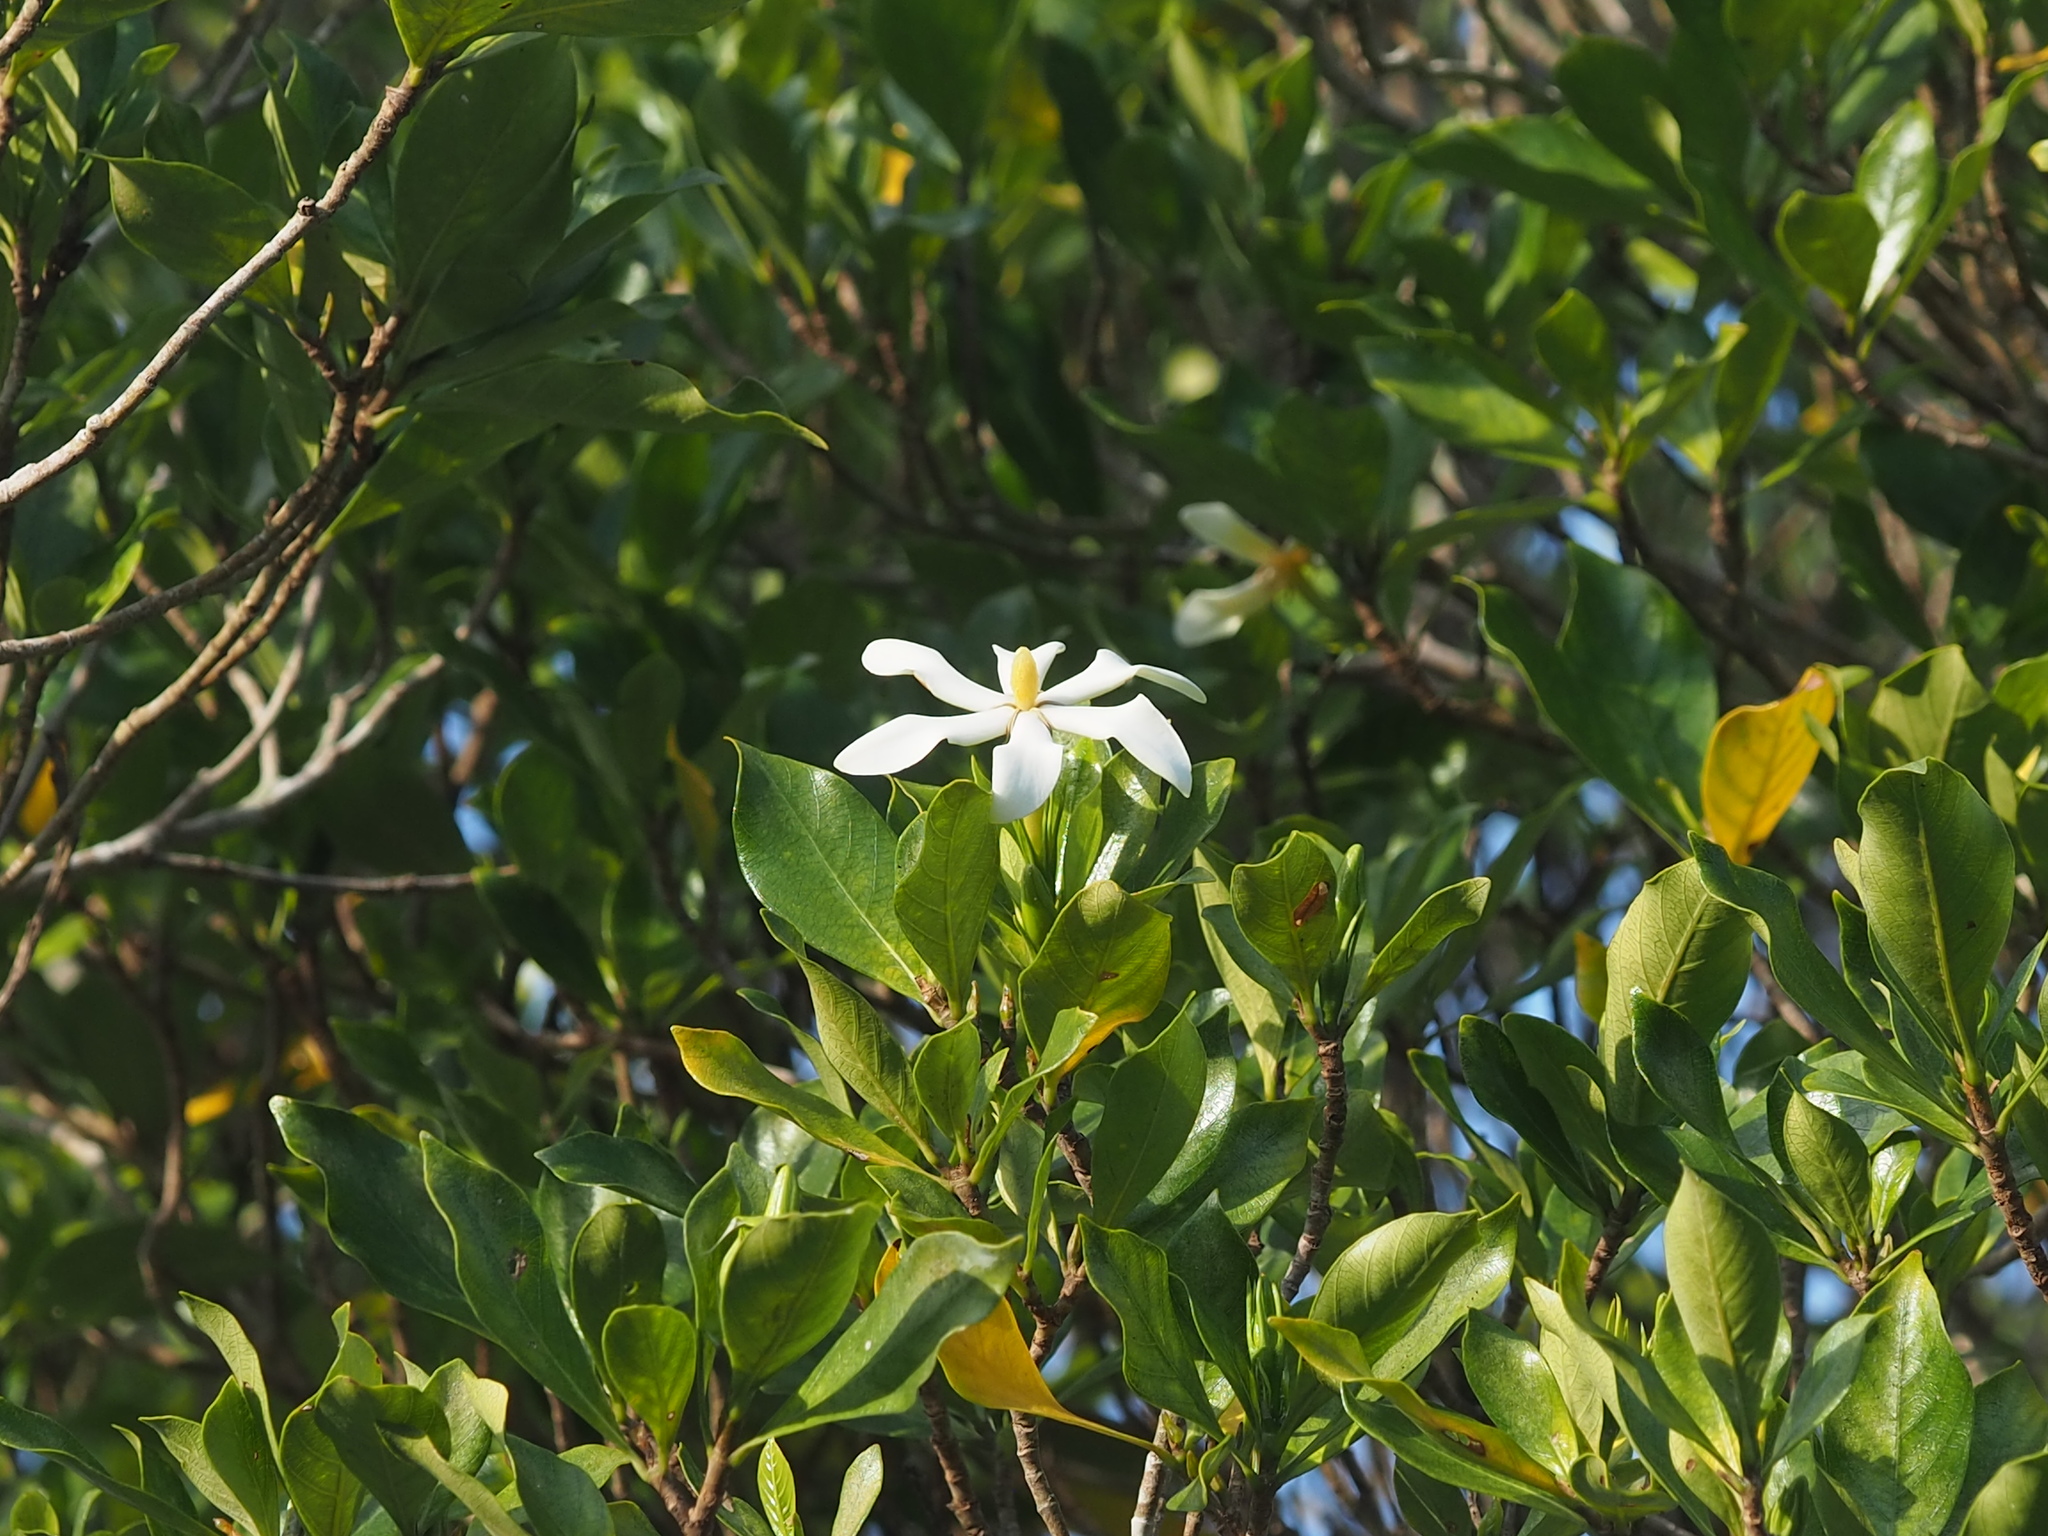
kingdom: Plantae
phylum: Tracheophyta
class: Magnoliopsida
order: Gentianales
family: Rubiaceae
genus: Gardenia
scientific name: Gardenia jasminoides
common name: Cape-jasmine
